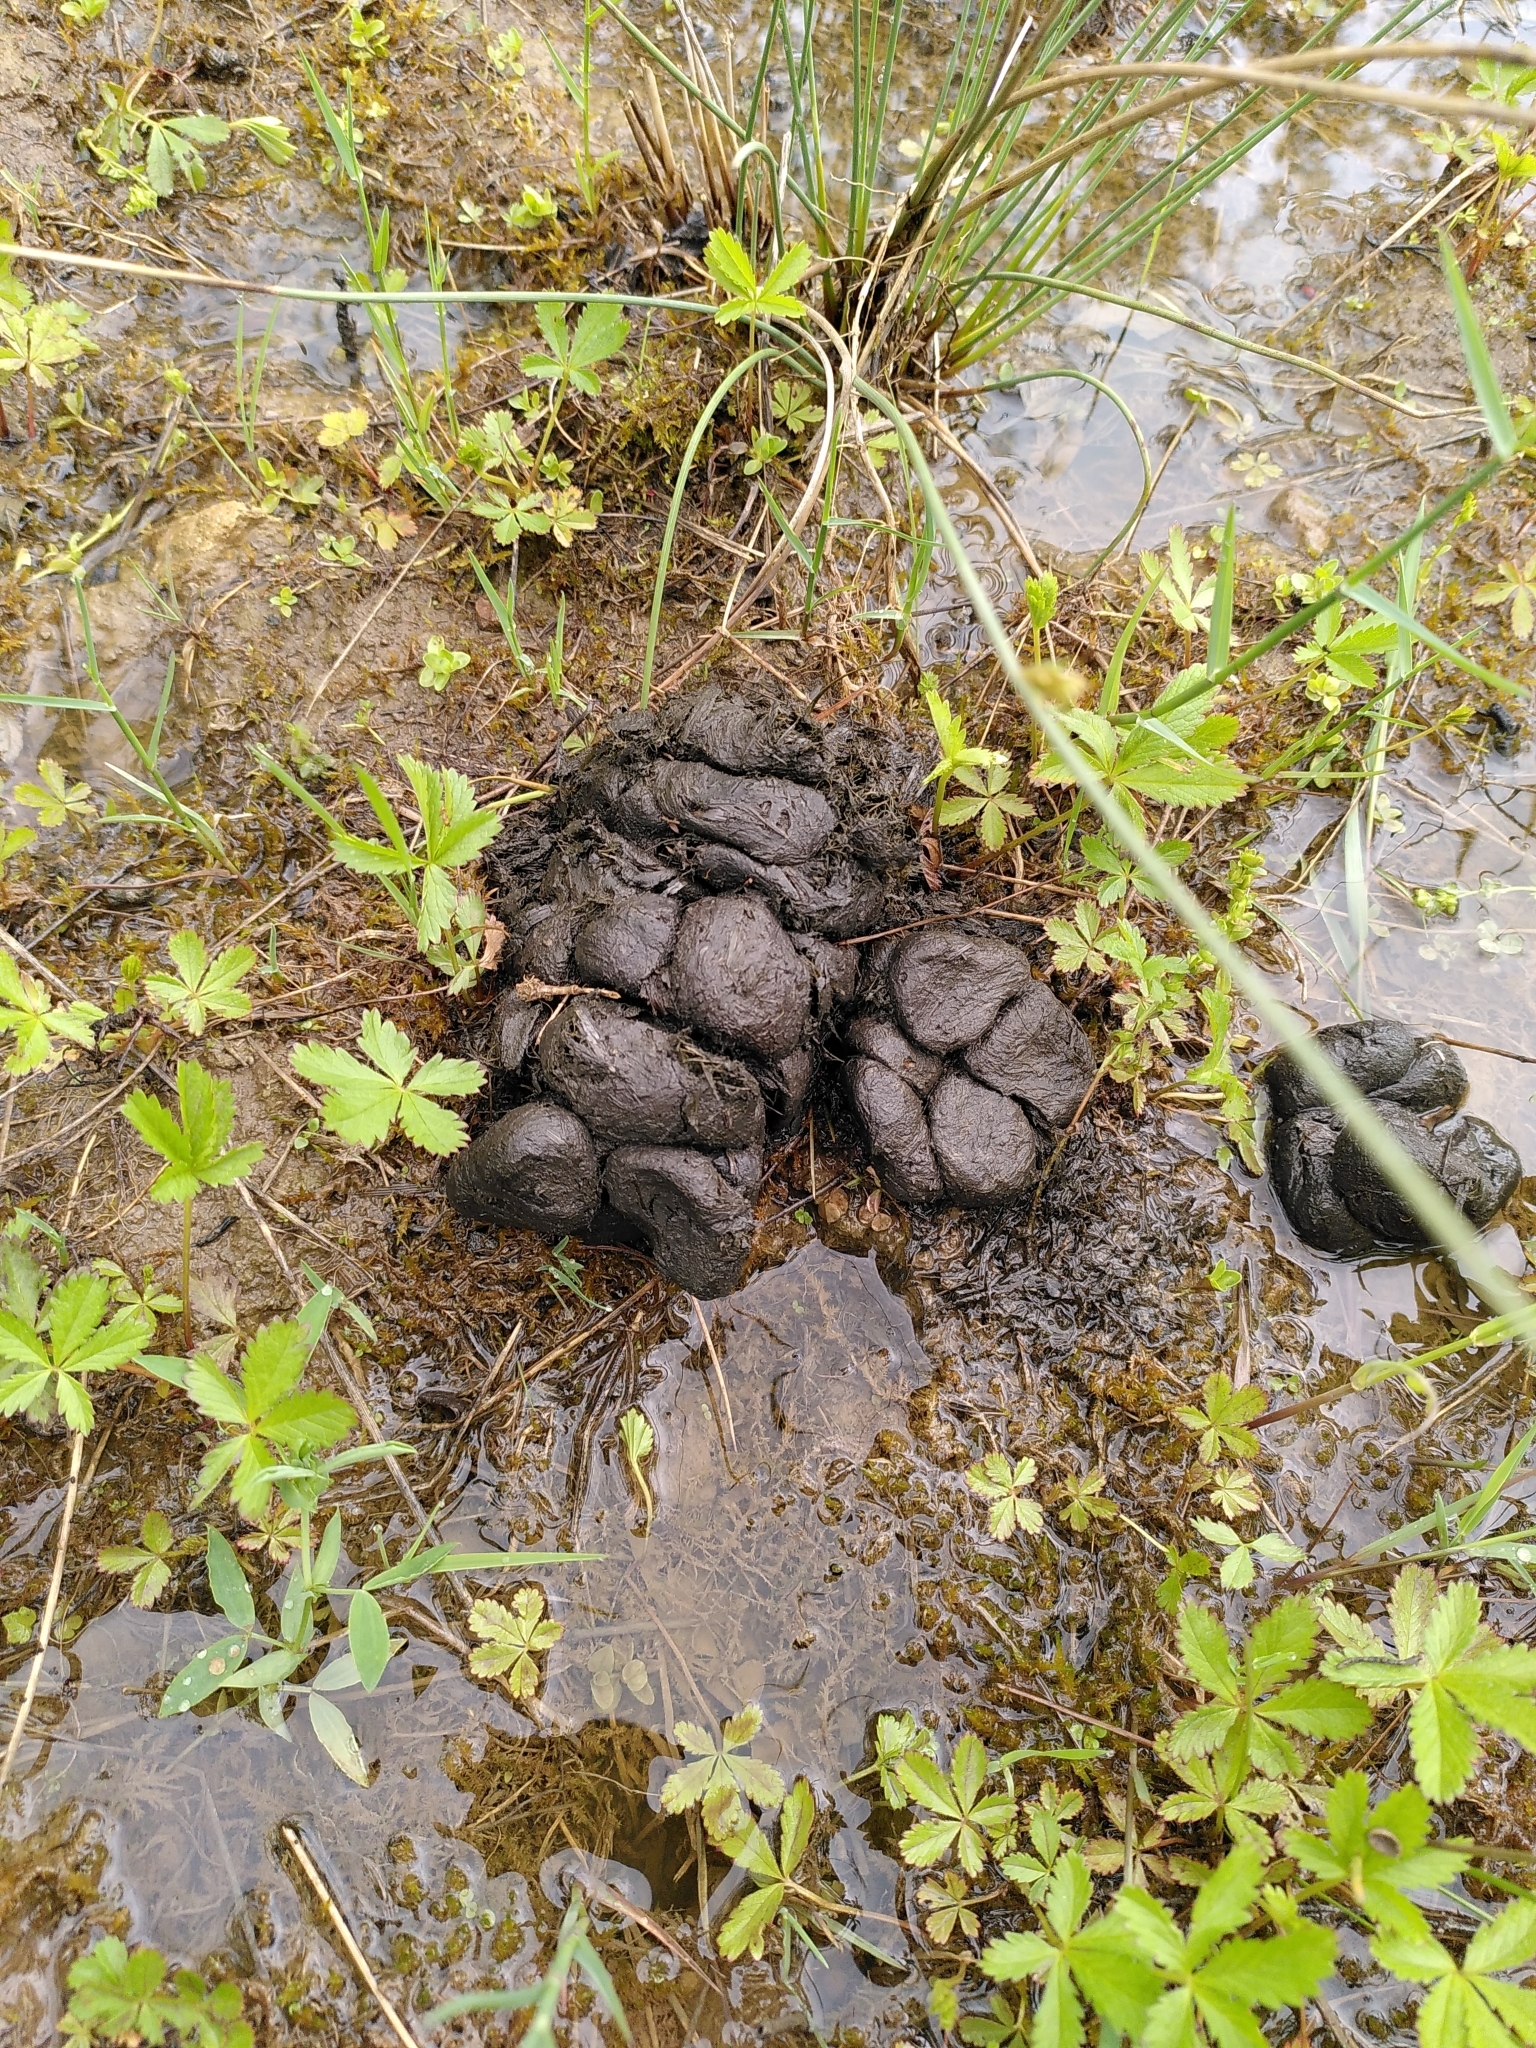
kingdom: Animalia
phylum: Chordata
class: Mammalia
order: Artiodactyla
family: Suidae
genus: Sus
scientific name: Sus scrofa
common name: Wild boar
